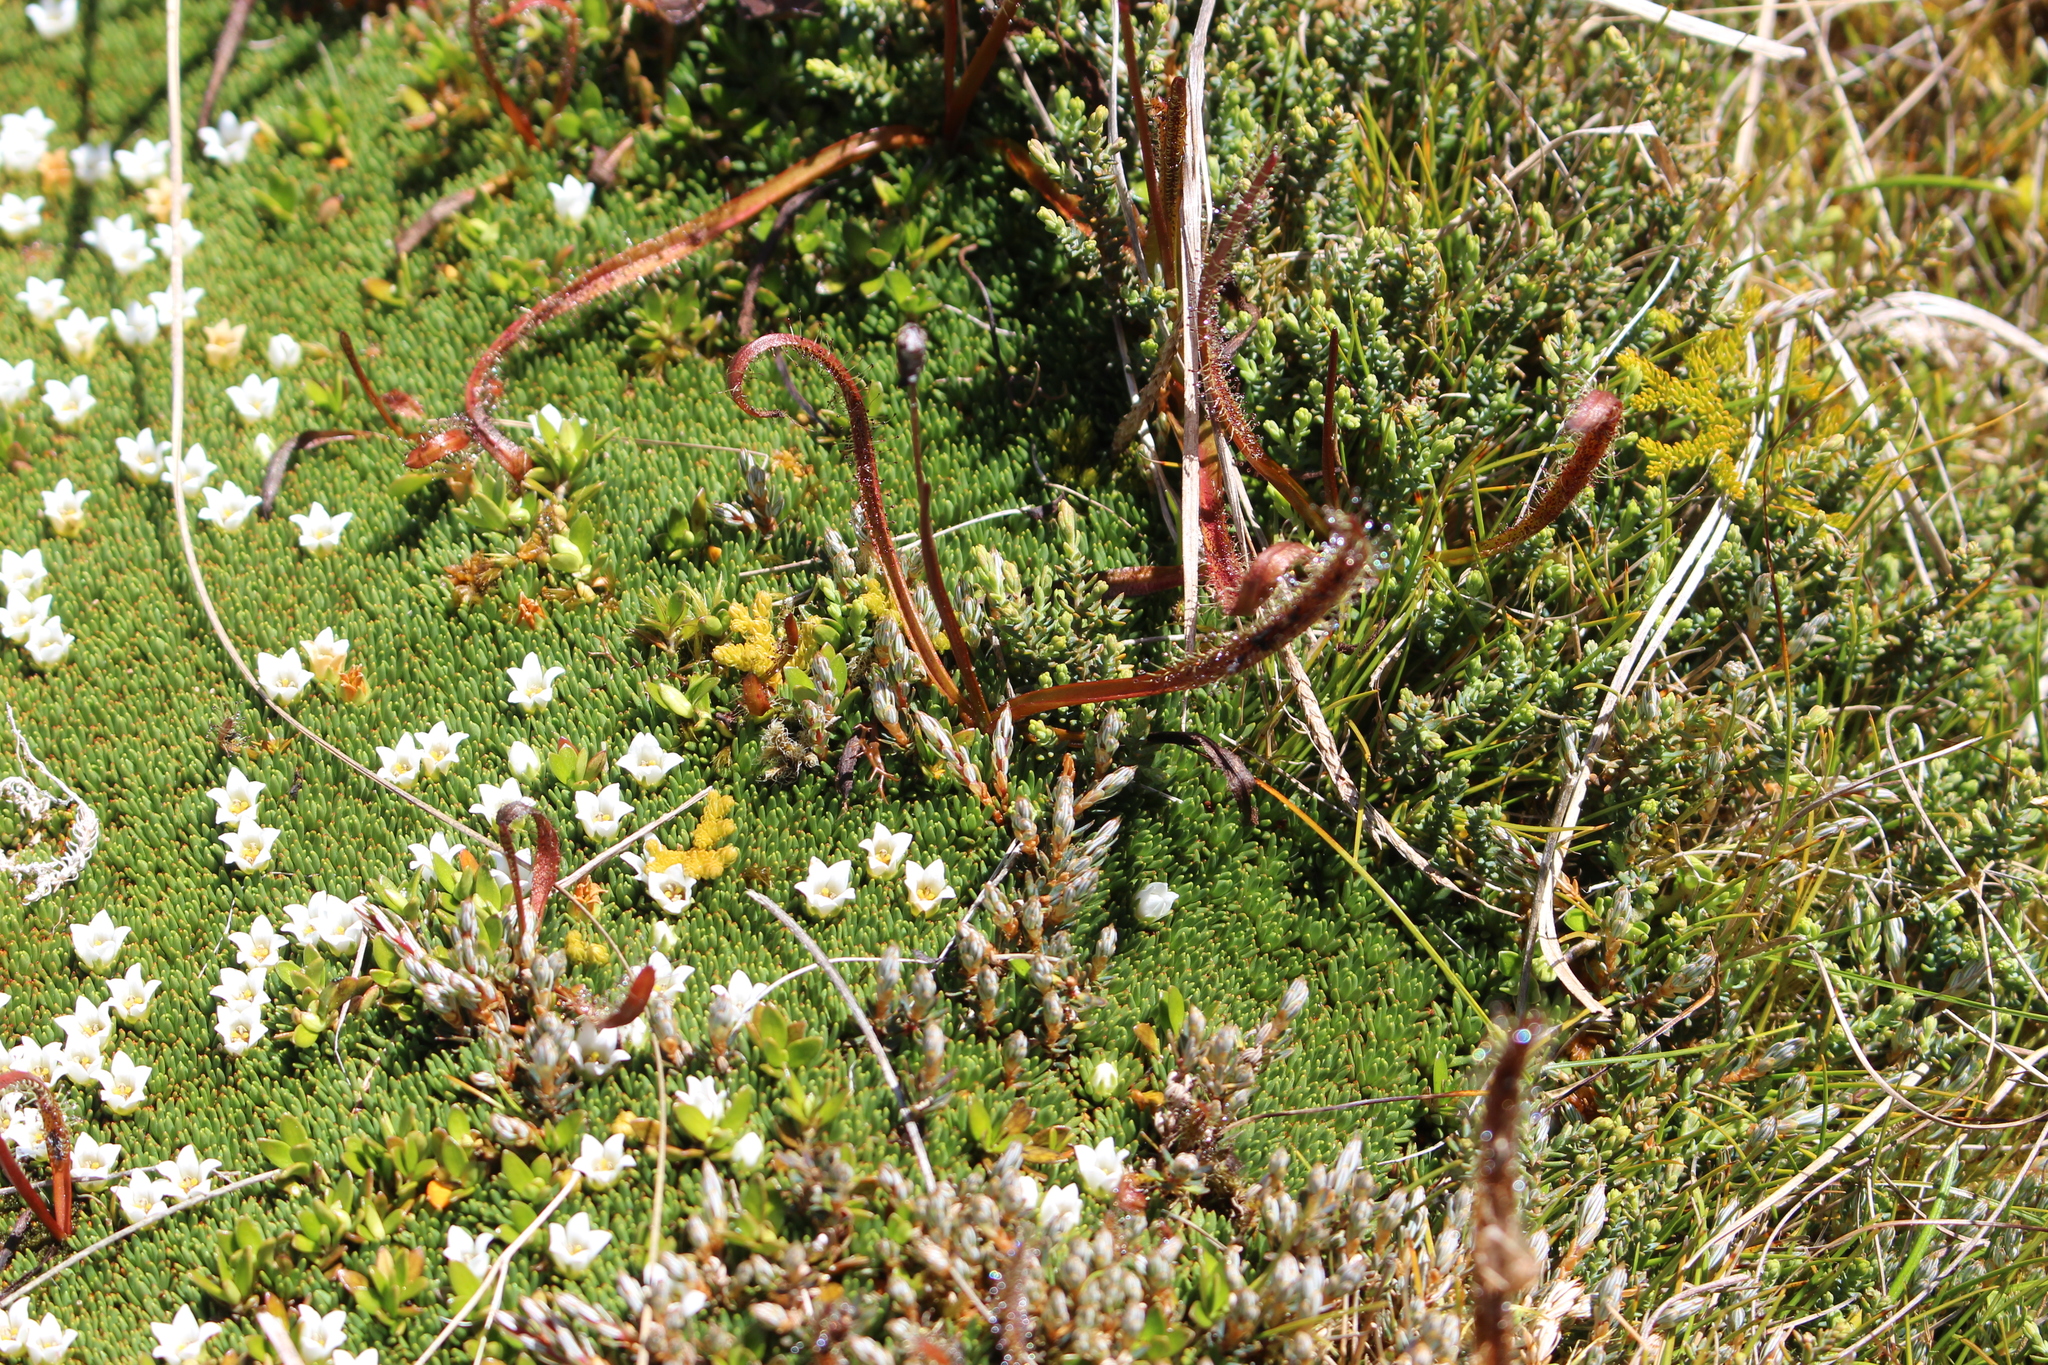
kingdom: Plantae
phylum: Tracheophyta
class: Magnoliopsida
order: Caryophyllales
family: Droseraceae
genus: Drosera
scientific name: Drosera arcturi
